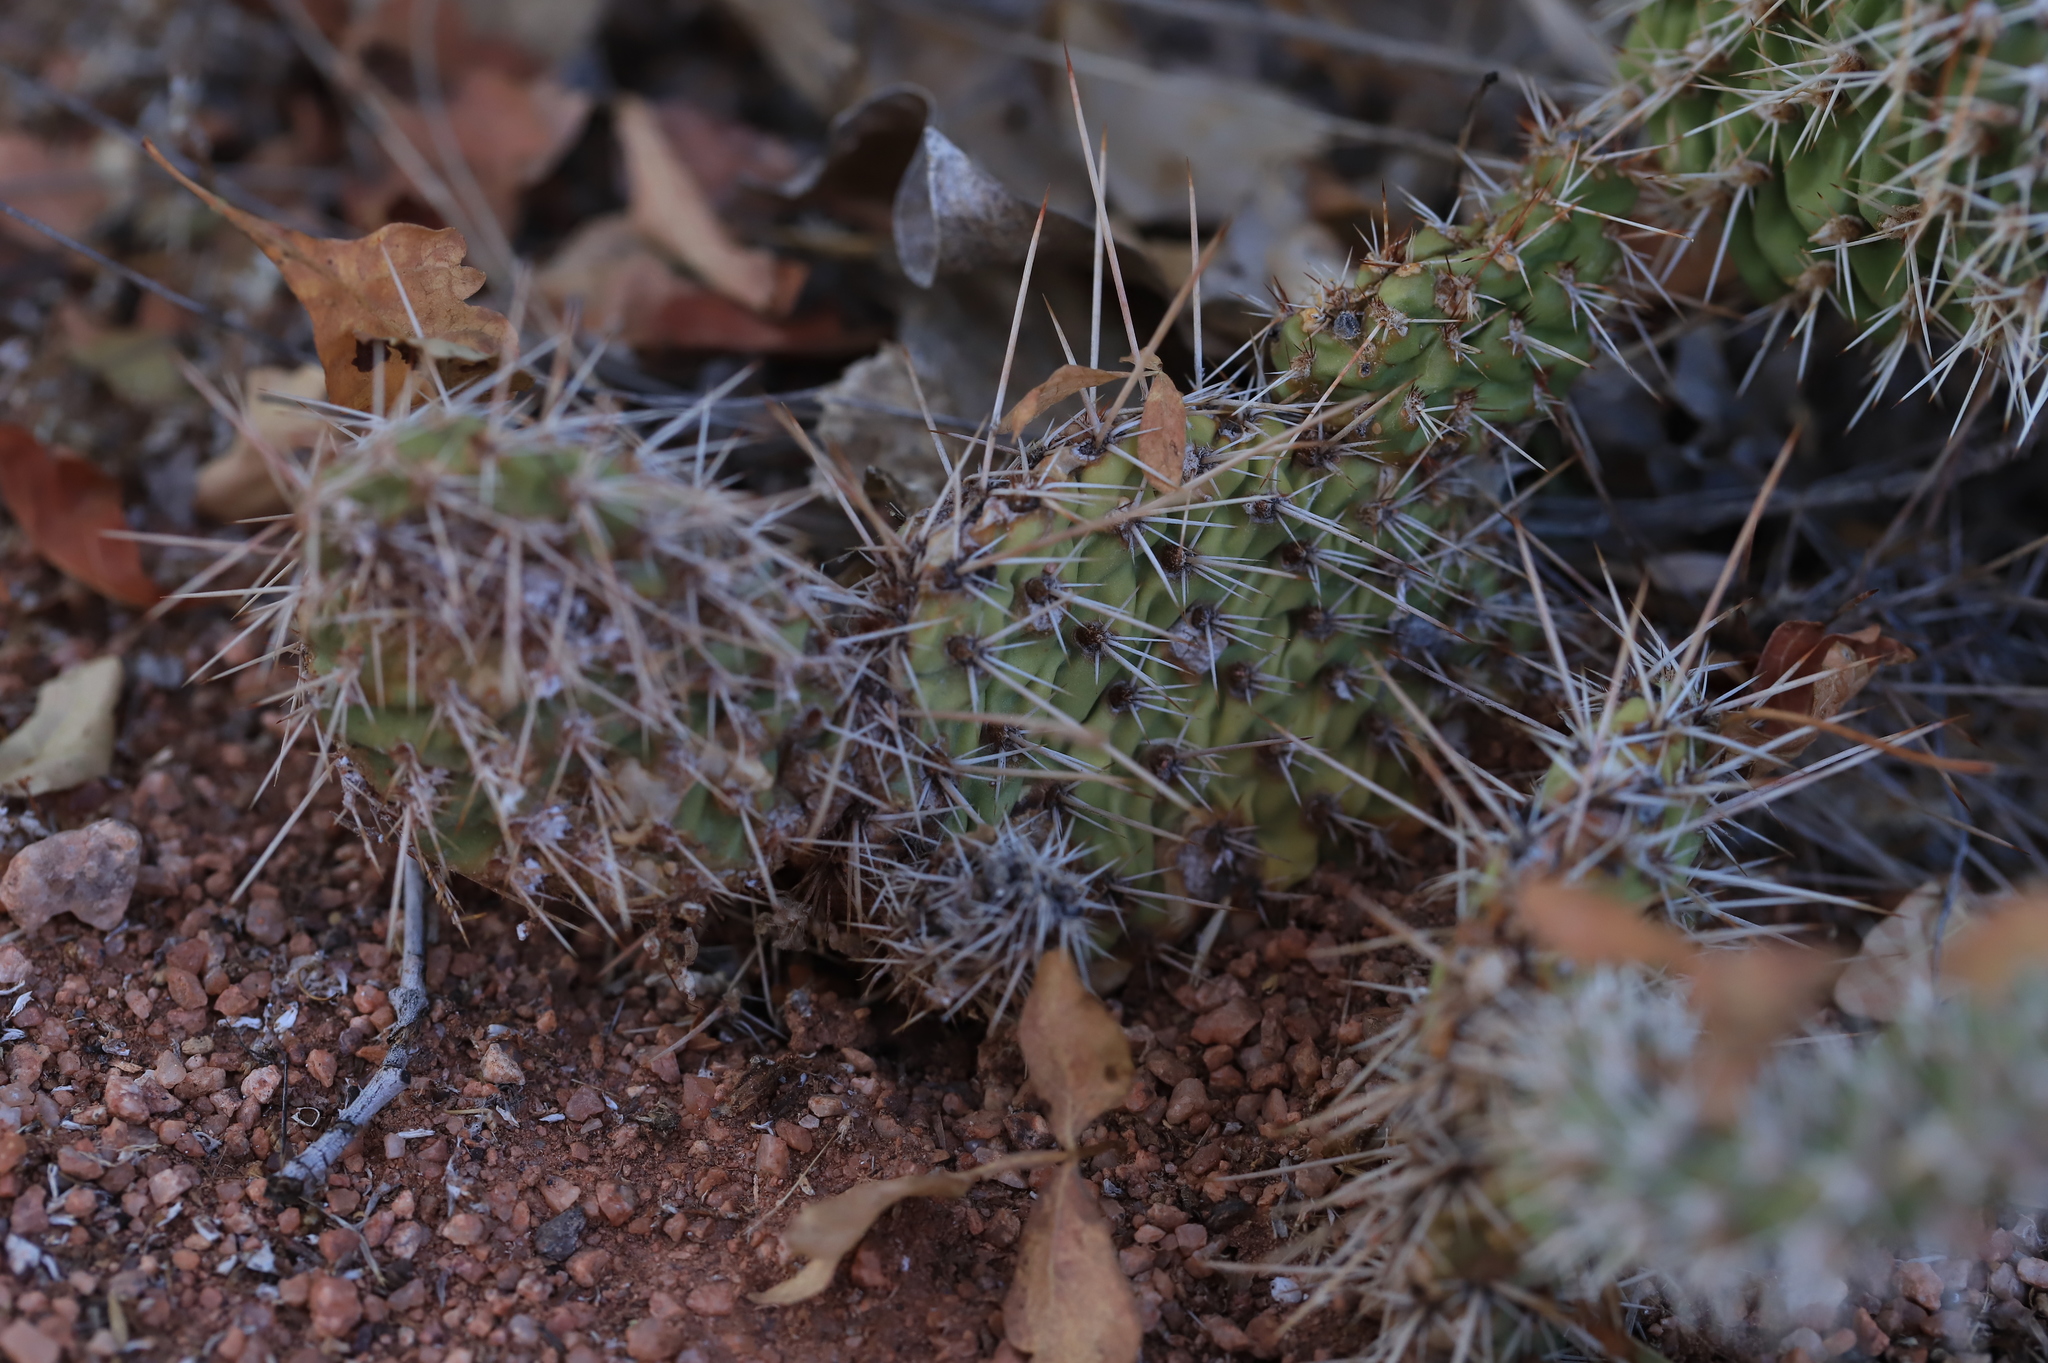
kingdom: Plantae
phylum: Tracheophyta
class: Magnoliopsida
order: Caryophyllales
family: Cactaceae
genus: Opuntia
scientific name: Opuntia polyacantha
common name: Plains prickly-pear
